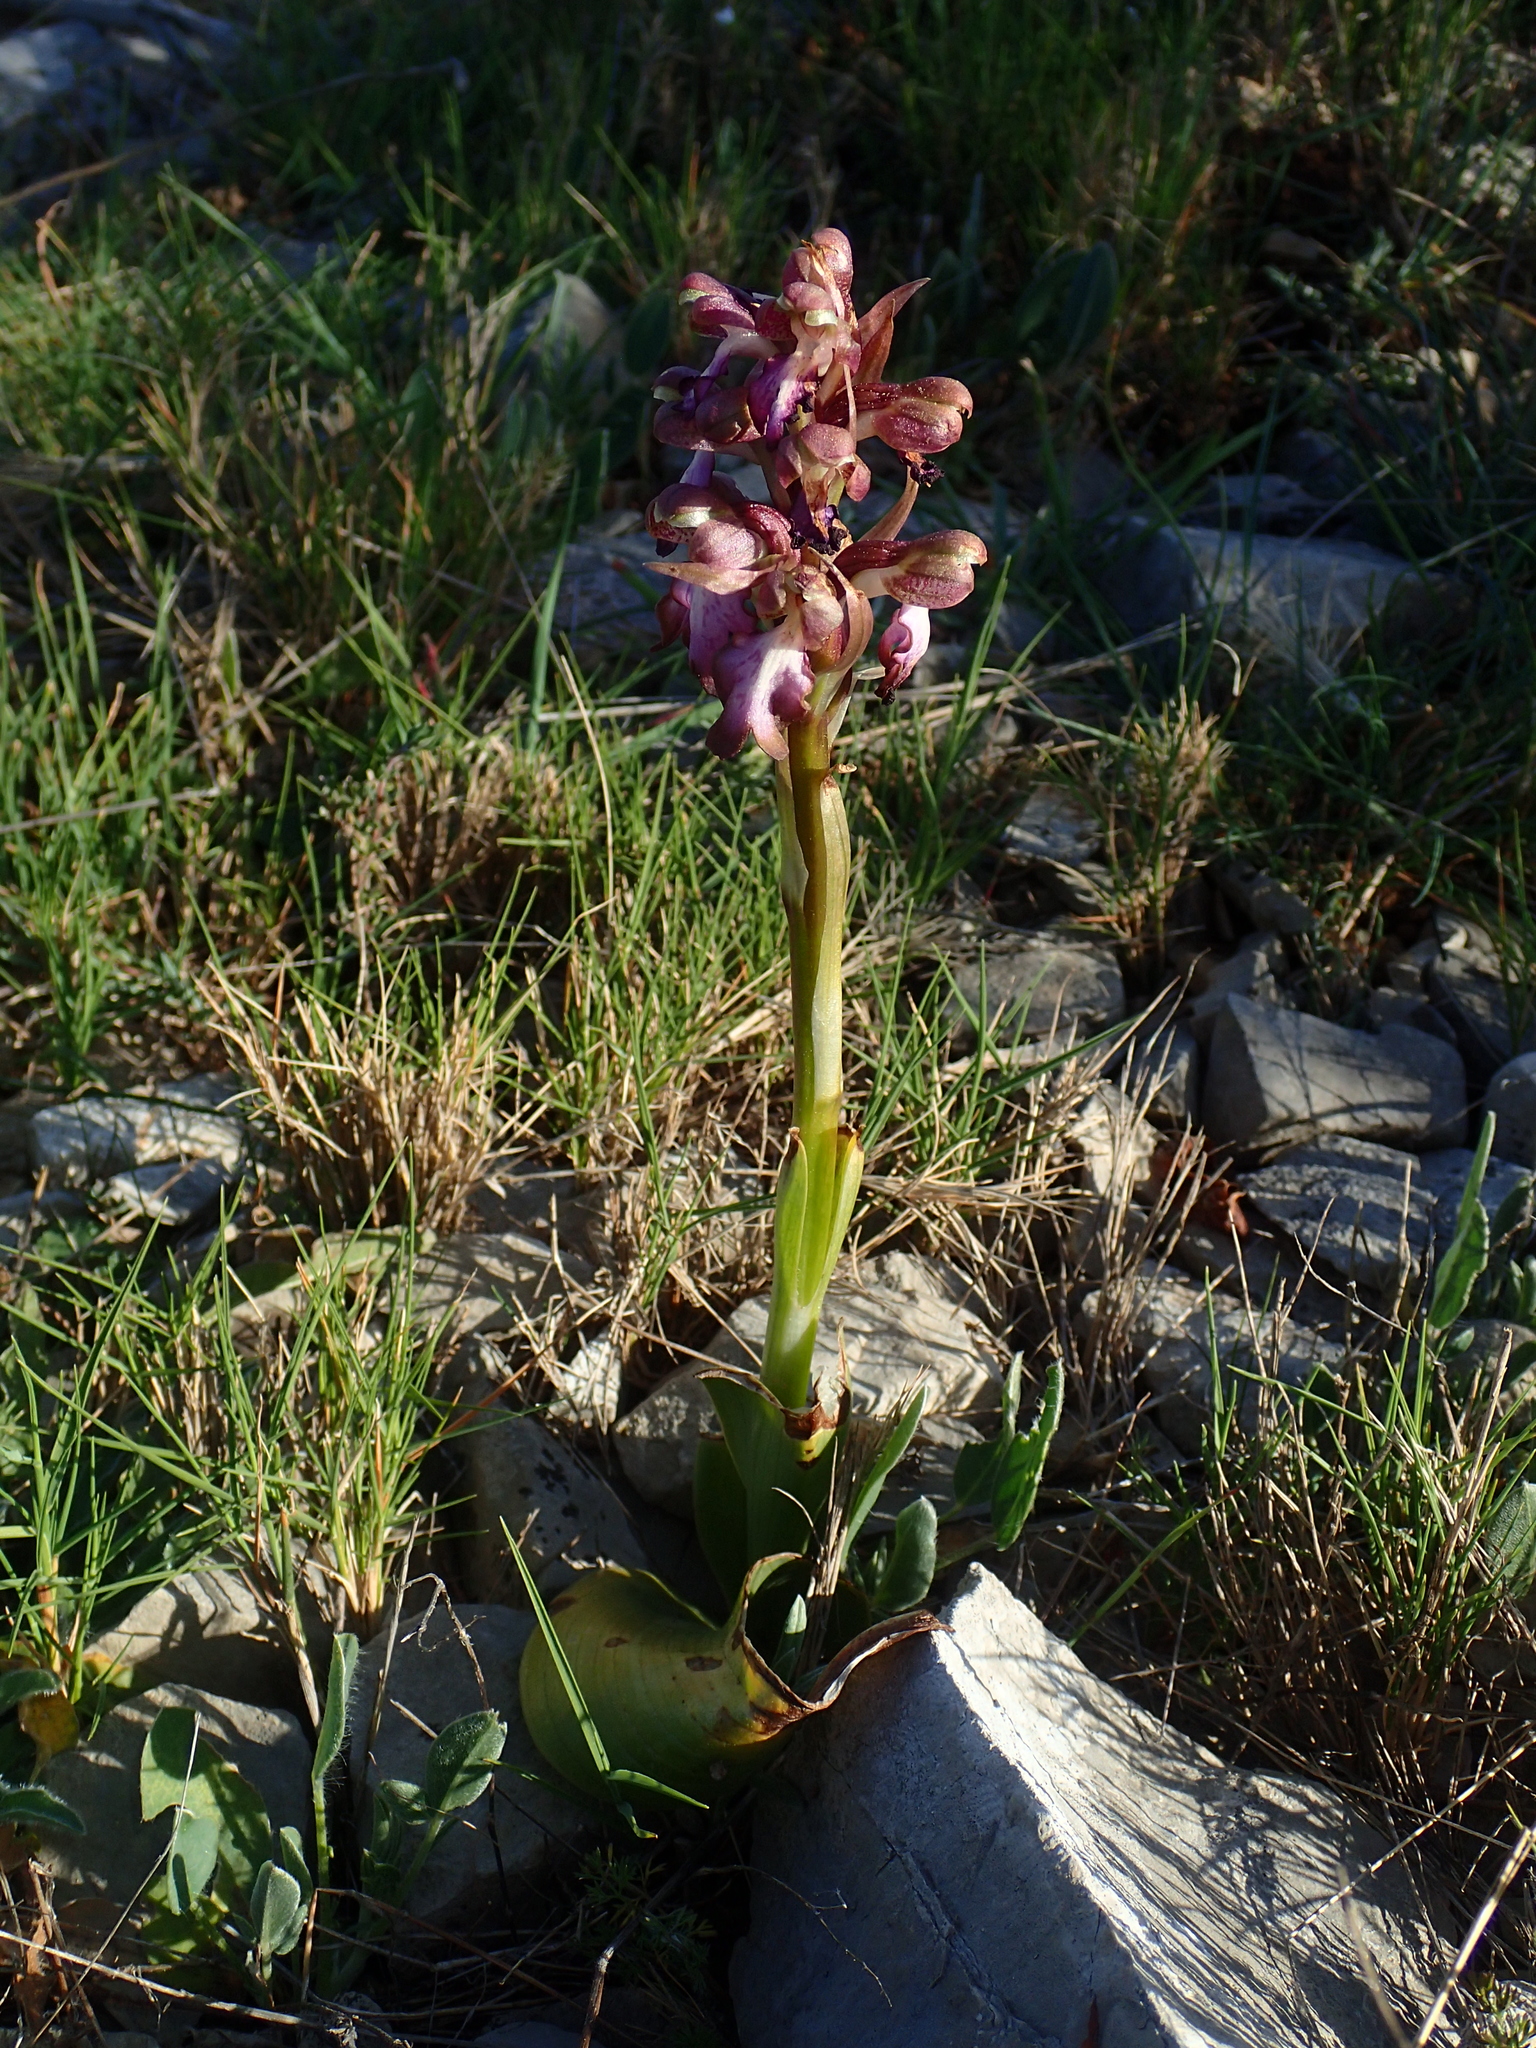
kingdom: Plantae
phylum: Tracheophyta
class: Liliopsida
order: Asparagales
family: Orchidaceae
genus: Himantoglossum
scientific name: Himantoglossum robertianum
